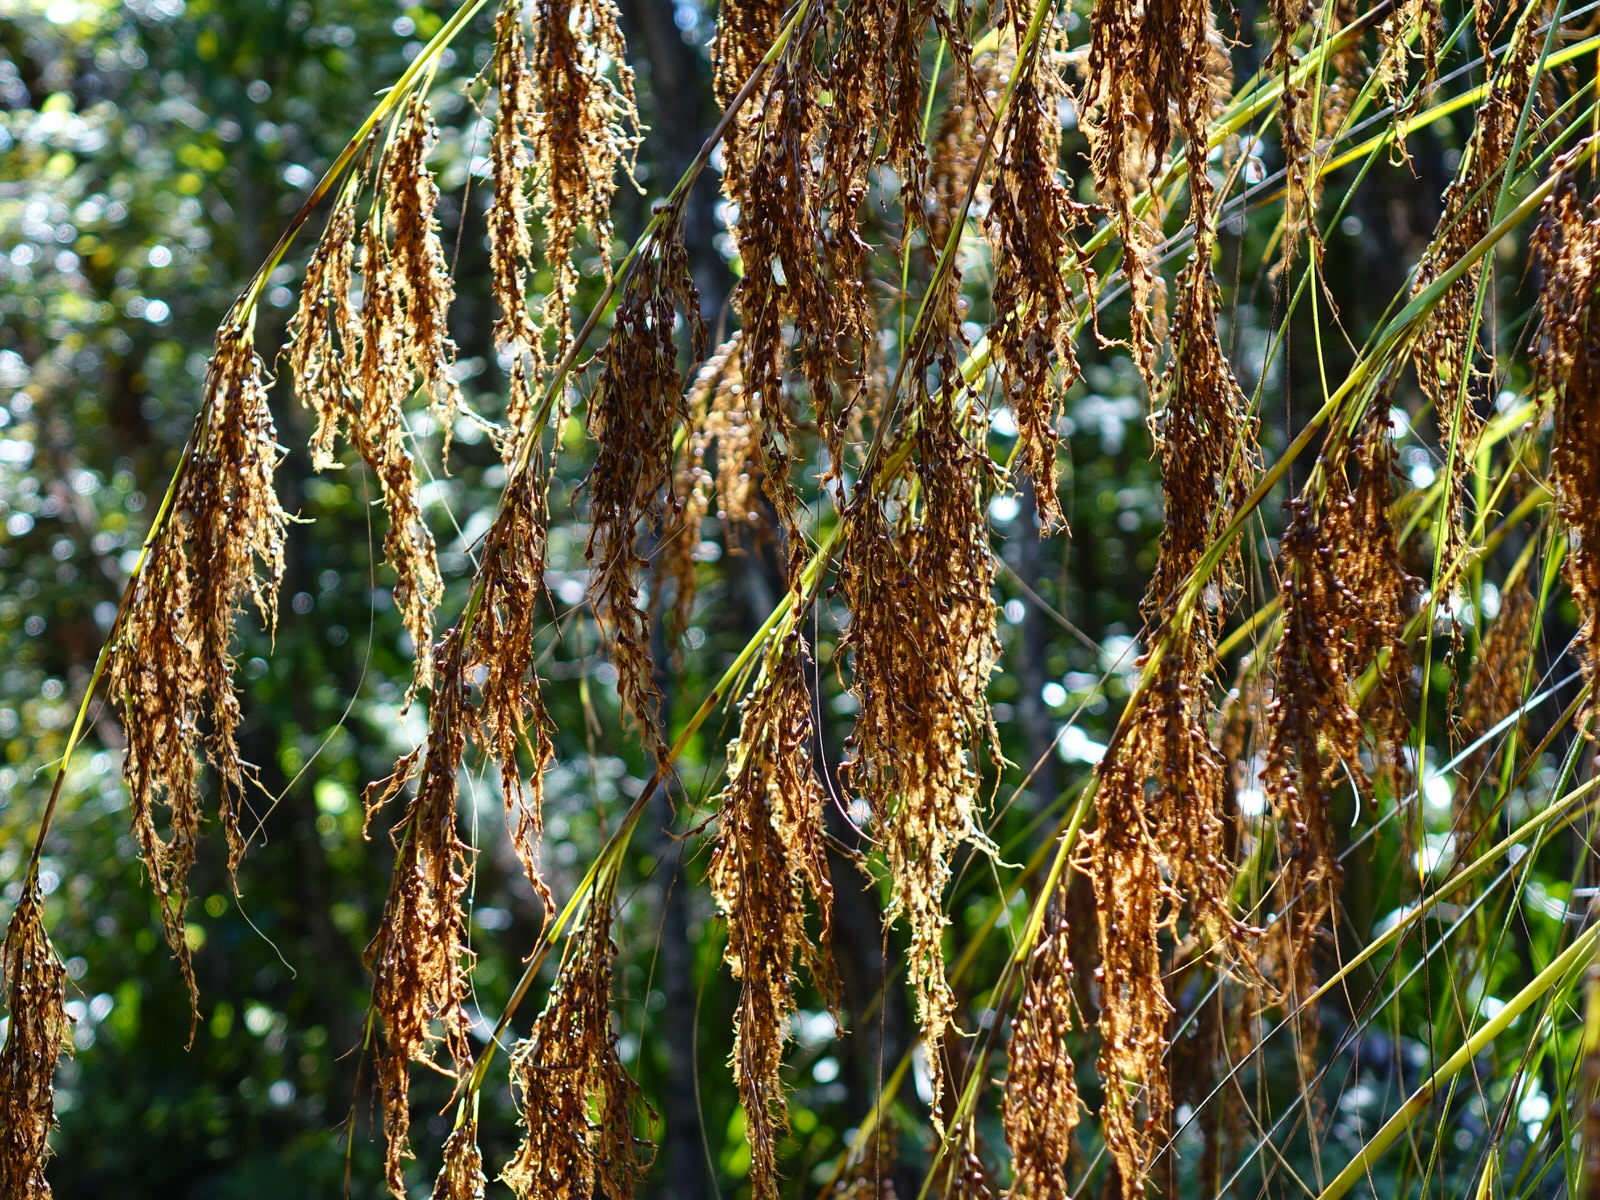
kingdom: Plantae
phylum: Tracheophyta
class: Liliopsida
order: Poales
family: Cyperaceae
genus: Gahnia
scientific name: Gahnia xanthocarpa
